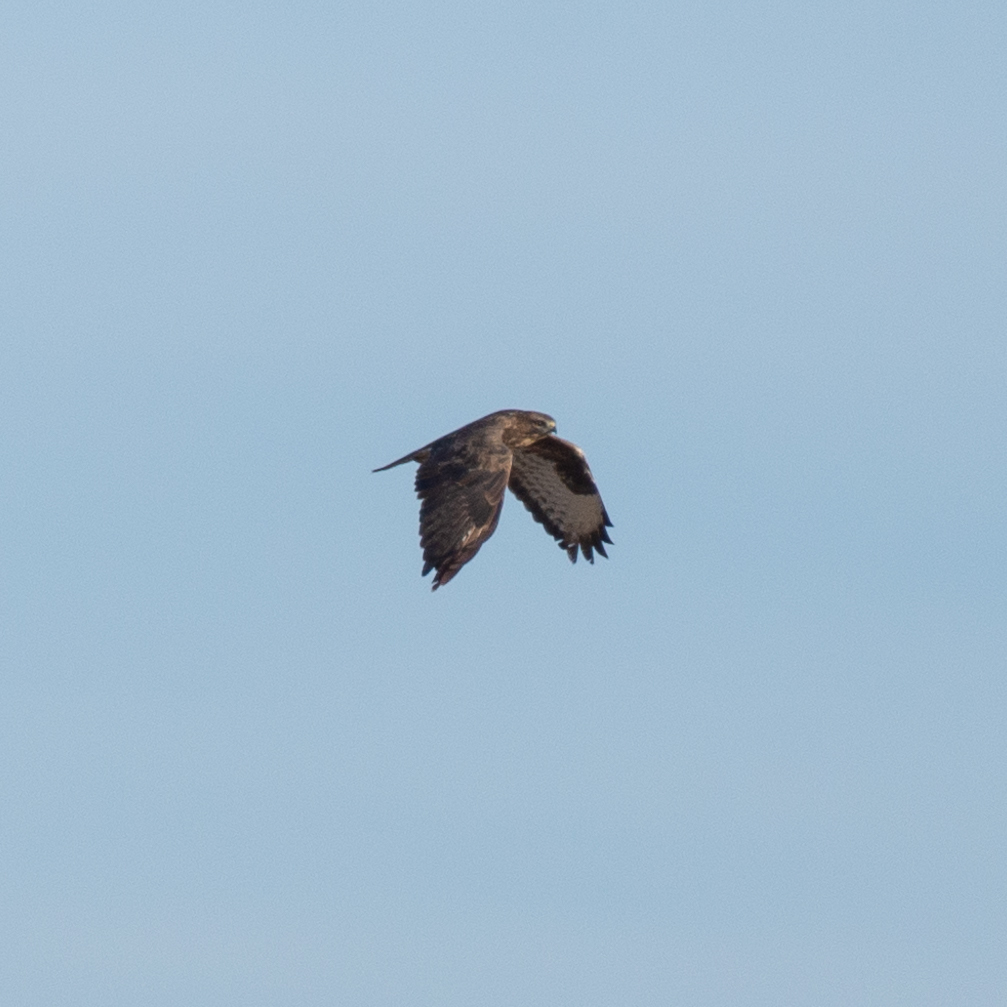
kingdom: Animalia
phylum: Chordata
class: Aves
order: Accipitriformes
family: Accipitridae
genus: Buteo
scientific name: Buteo buteo
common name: Common buzzard
